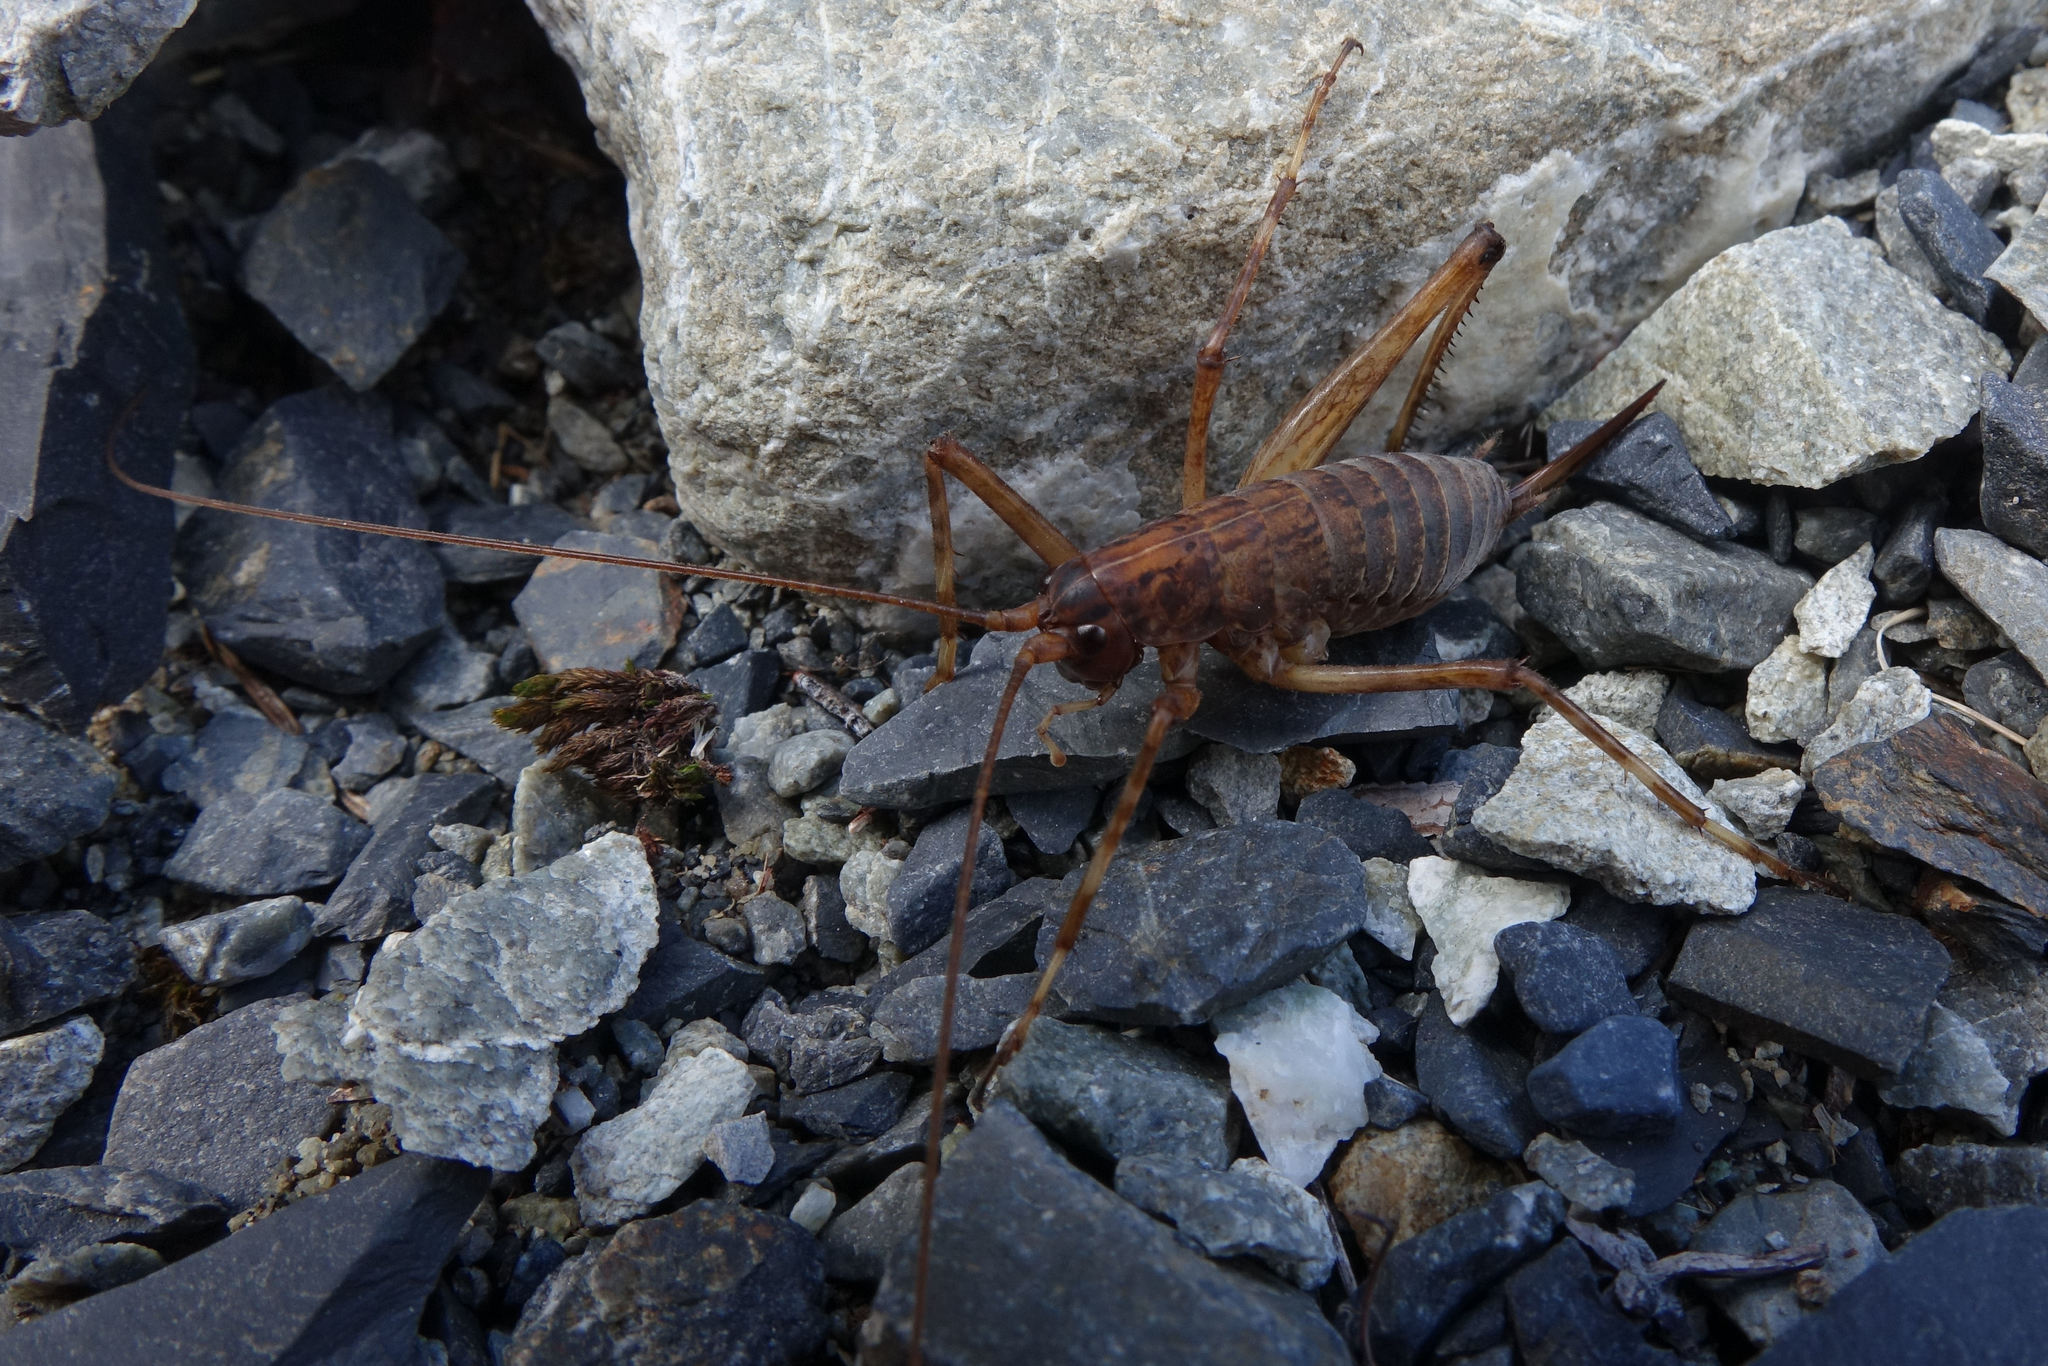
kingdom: Animalia
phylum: Arthropoda
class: Insecta
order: Orthoptera
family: Rhaphidophoridae
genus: Notoplectron
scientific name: Notoplectron brewsterensis
